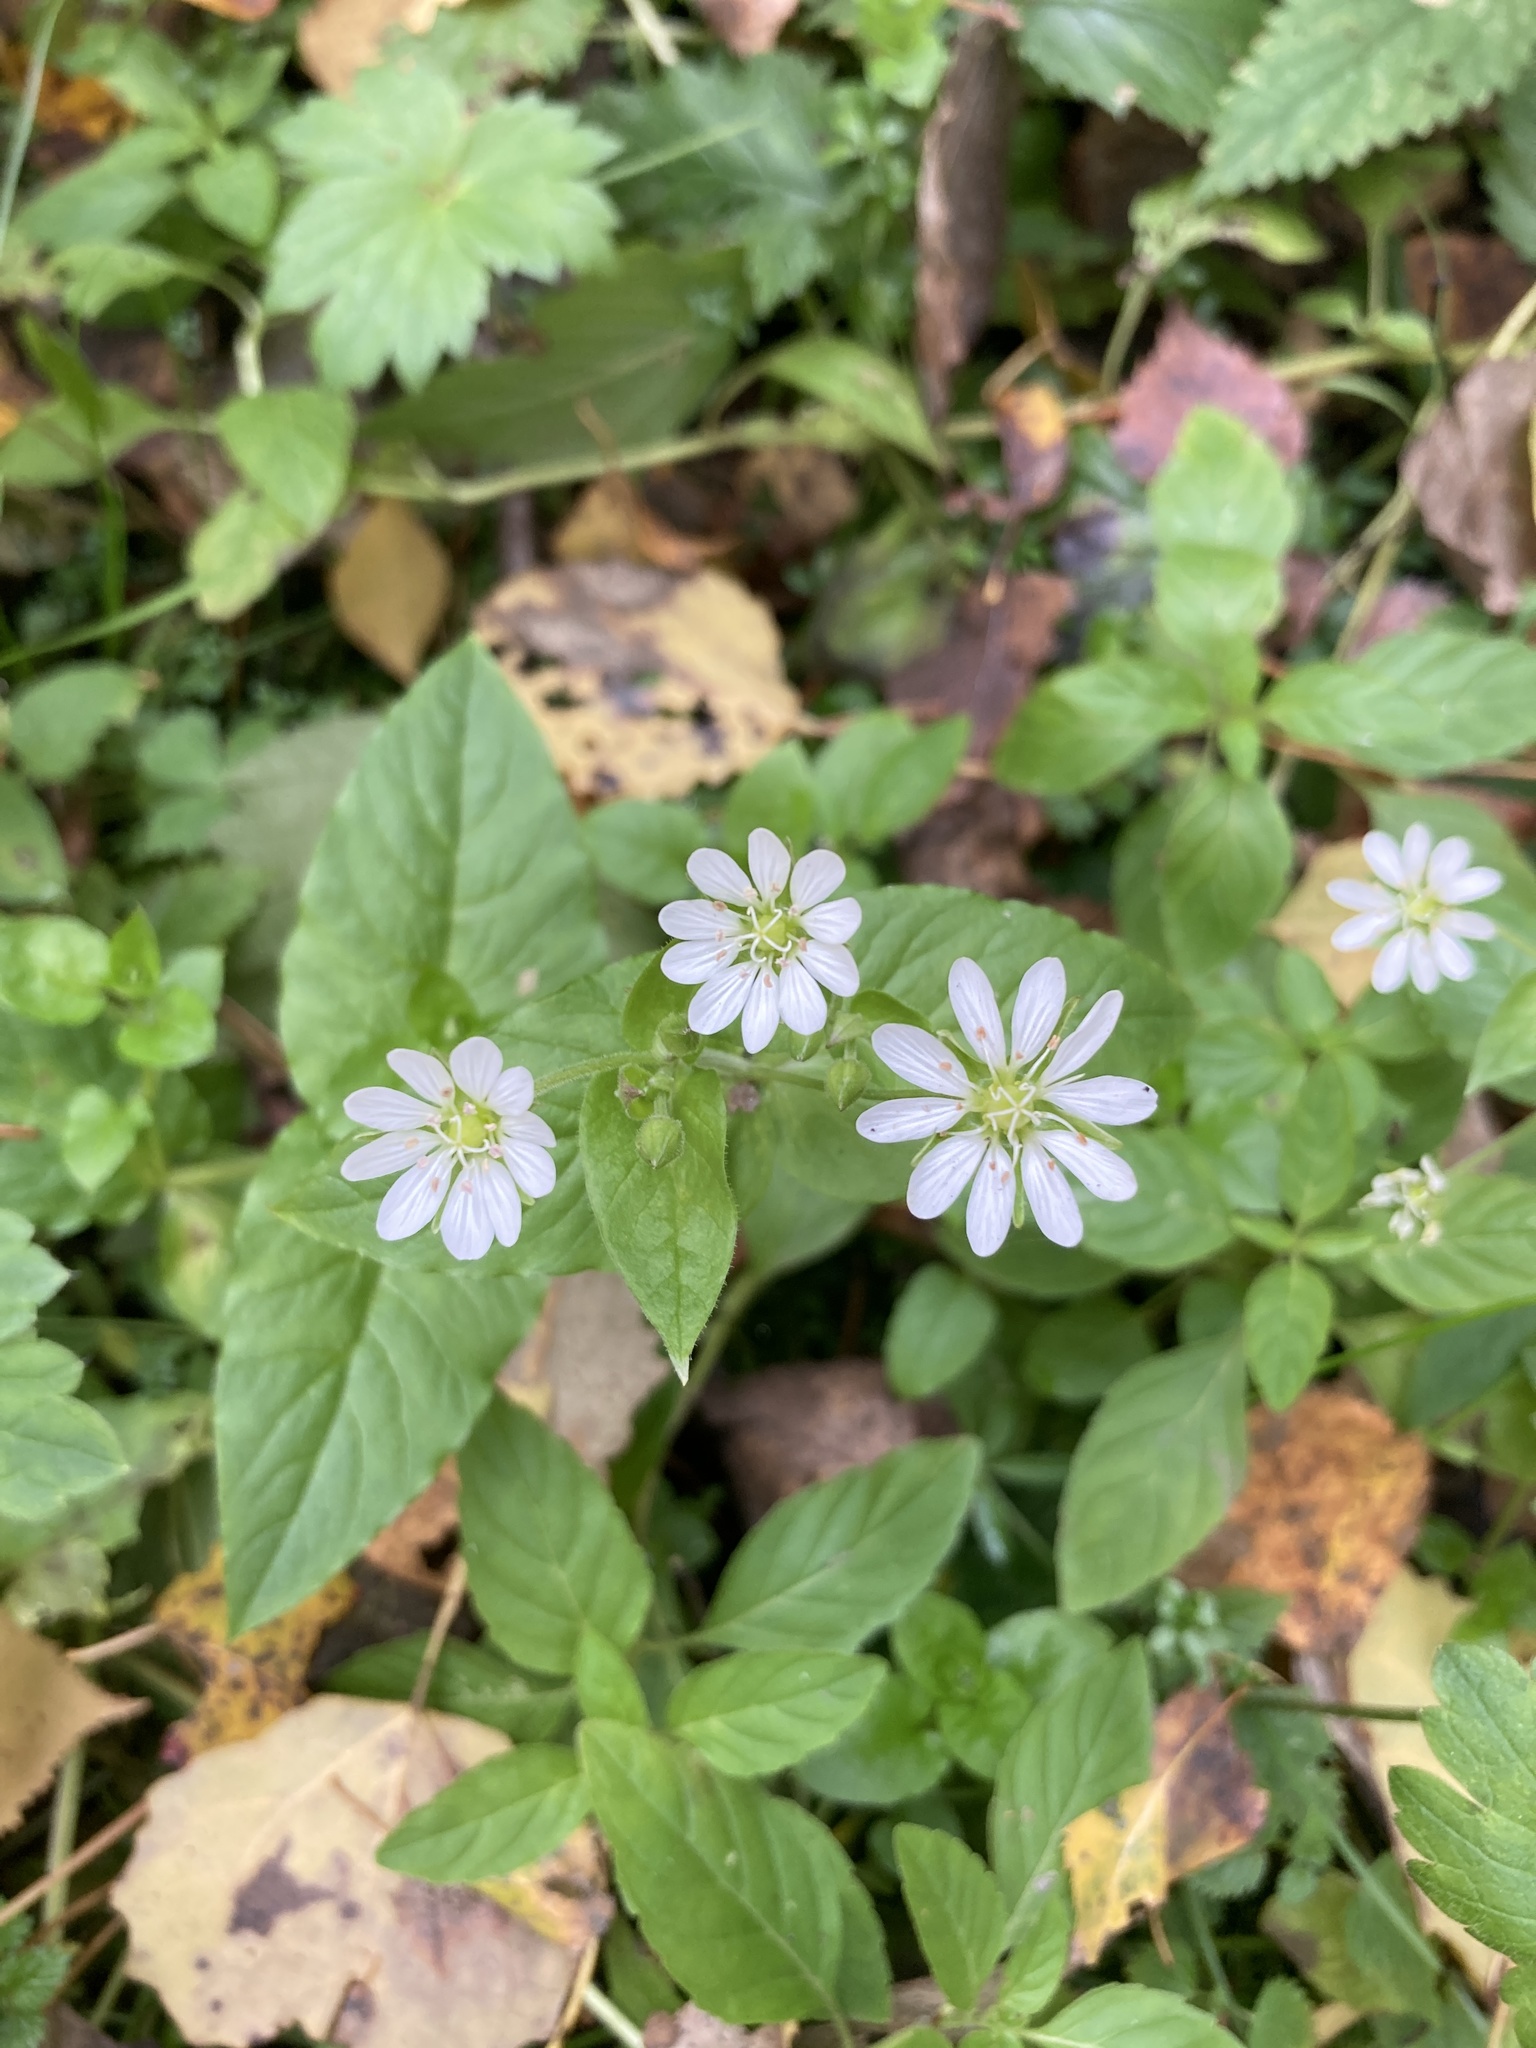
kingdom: Plantae
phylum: Tracheophyta
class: Magnoliopsida
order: Caryophyllales
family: Caryophyllaceae
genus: Stellaria
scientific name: Stellaria aquatica
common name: Water chickweed
